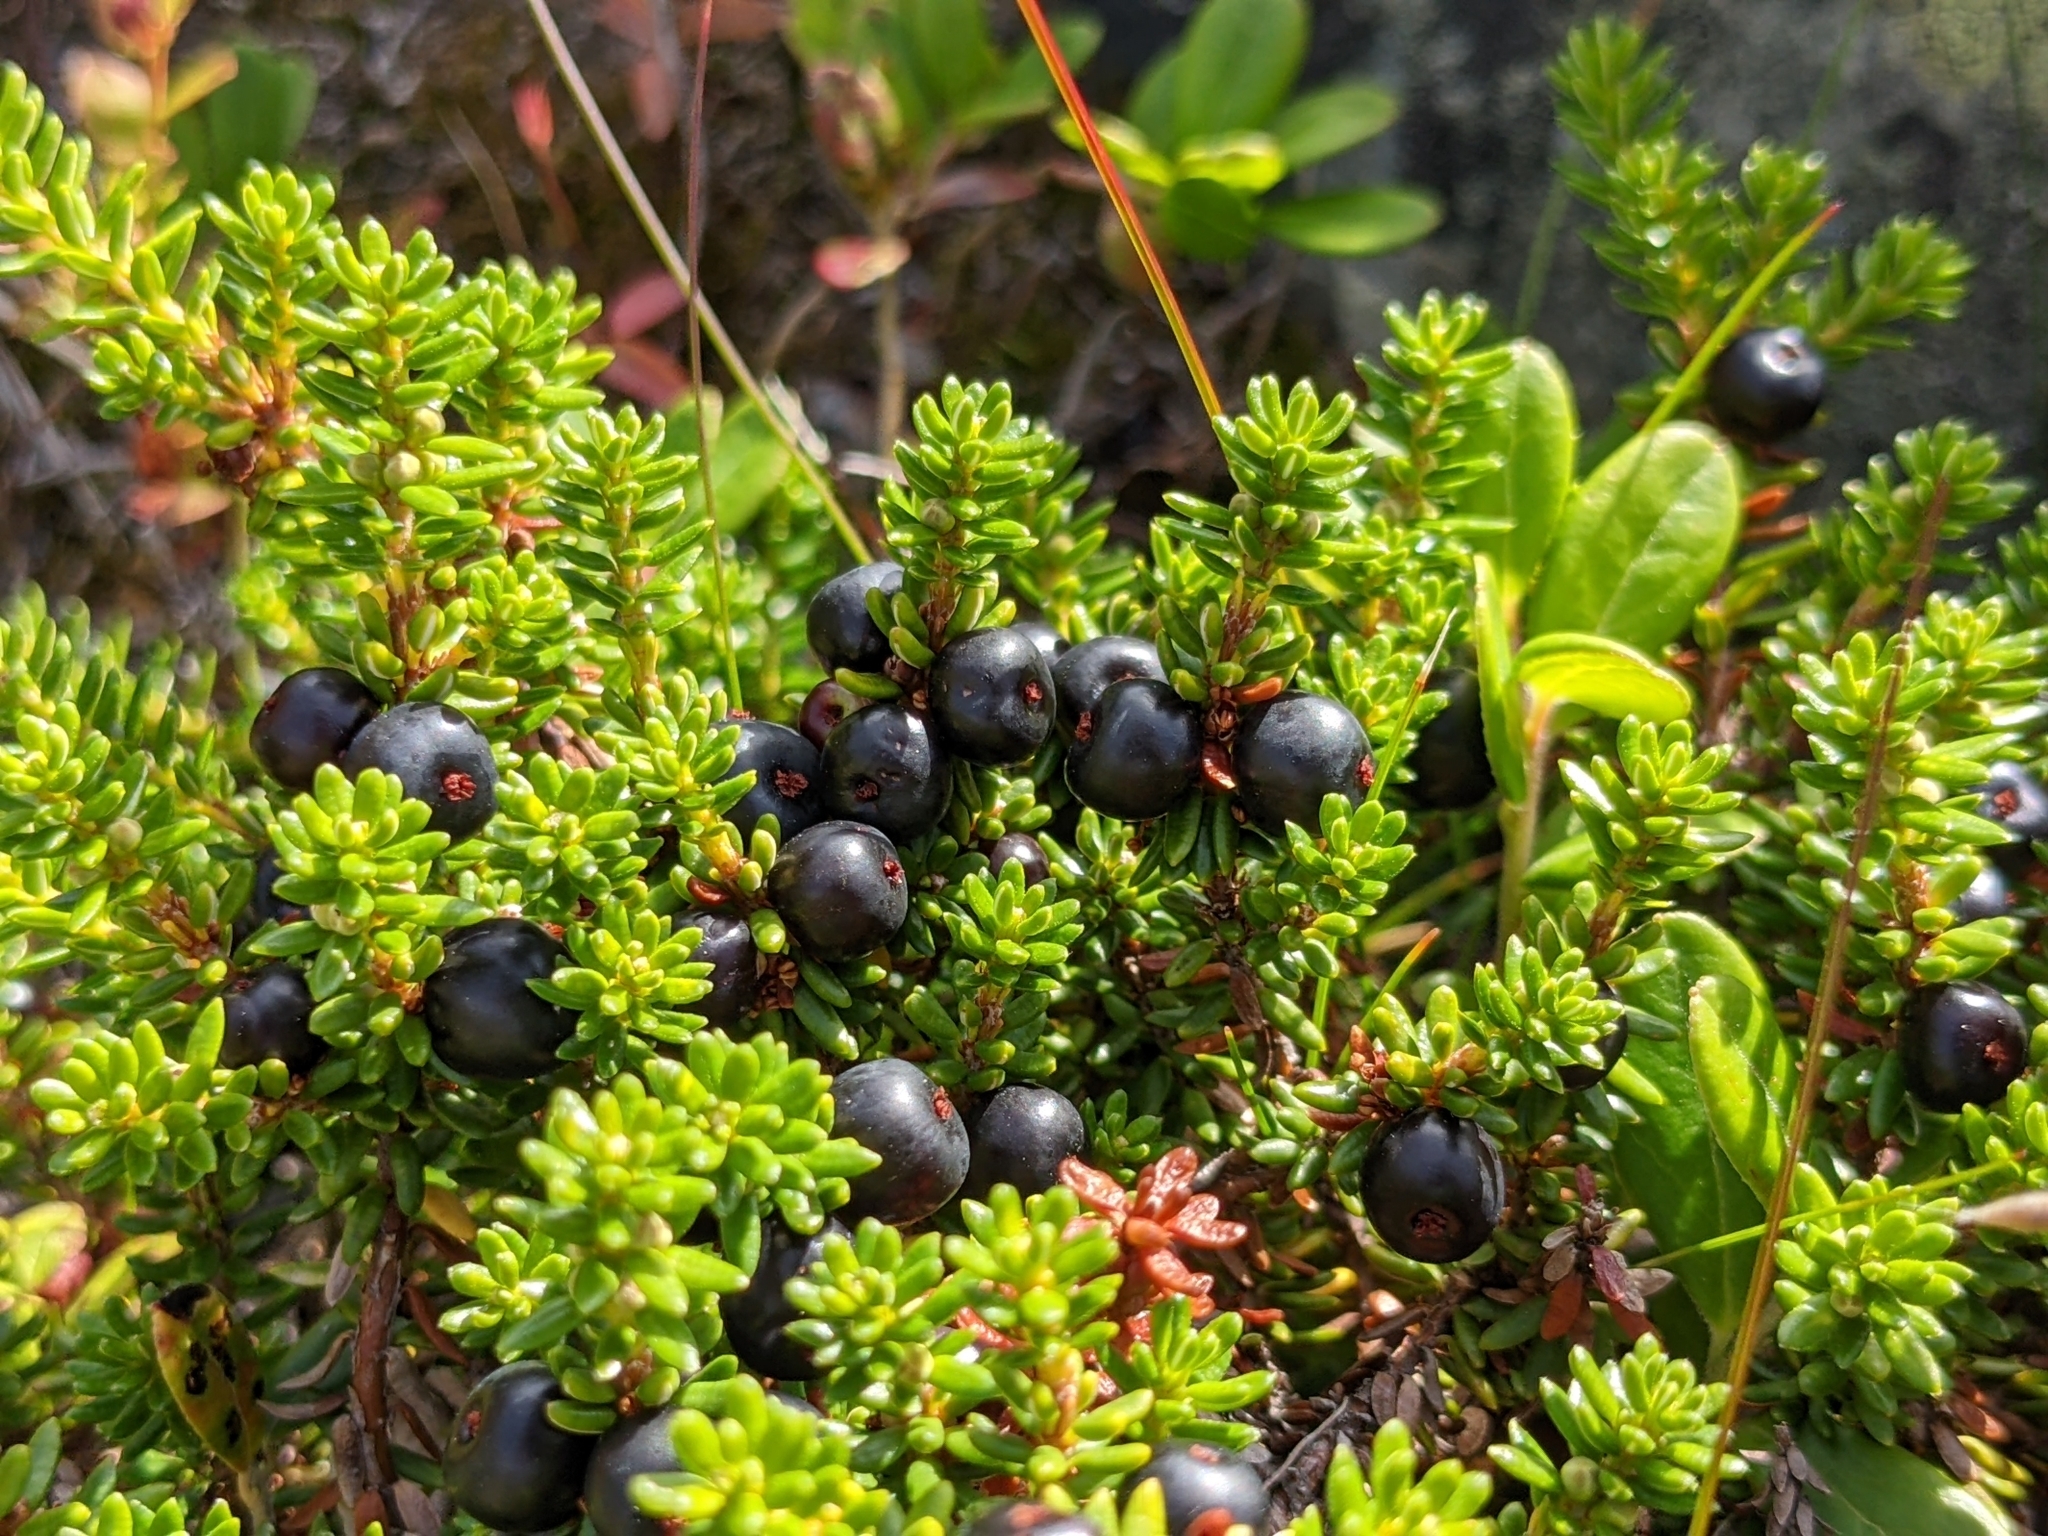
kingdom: Plantae
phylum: Tracheophyta
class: Magnoliopsida
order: Ericales
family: Ericaceae
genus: Empetrum
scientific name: Empetrum nigrum
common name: Black crowberry
